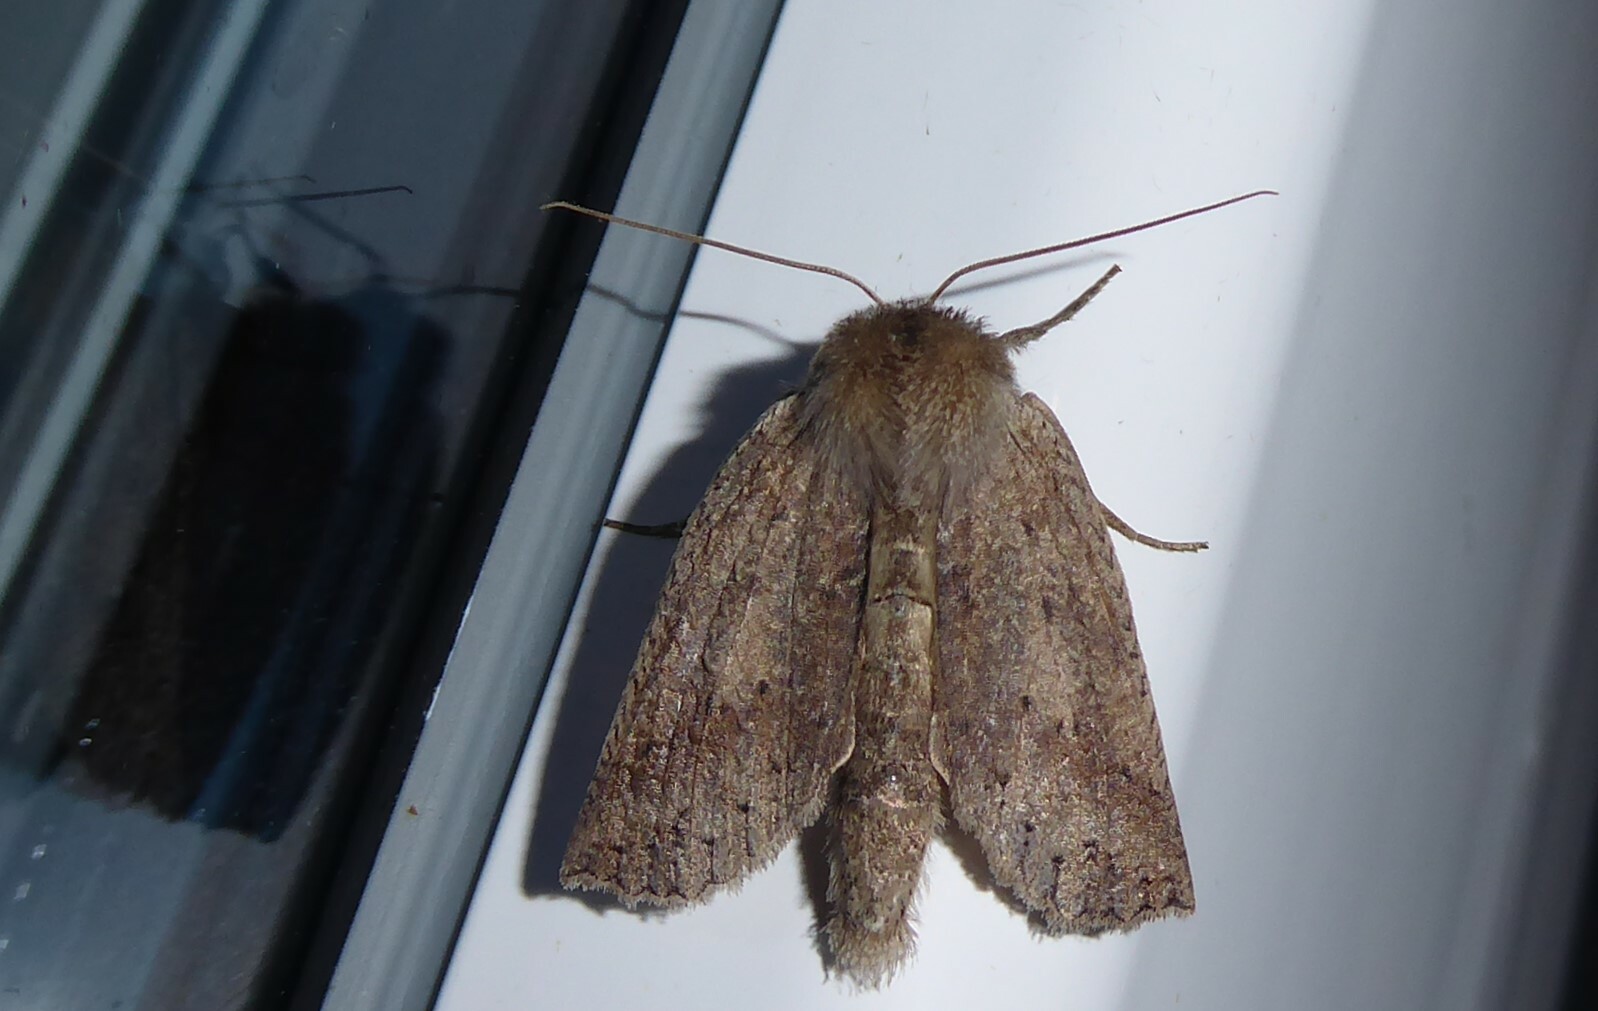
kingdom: Animalia
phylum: Arthropoda
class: Insecta
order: Lepidoptera
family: Geometridae
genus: Declana
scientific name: Declana leptomera
